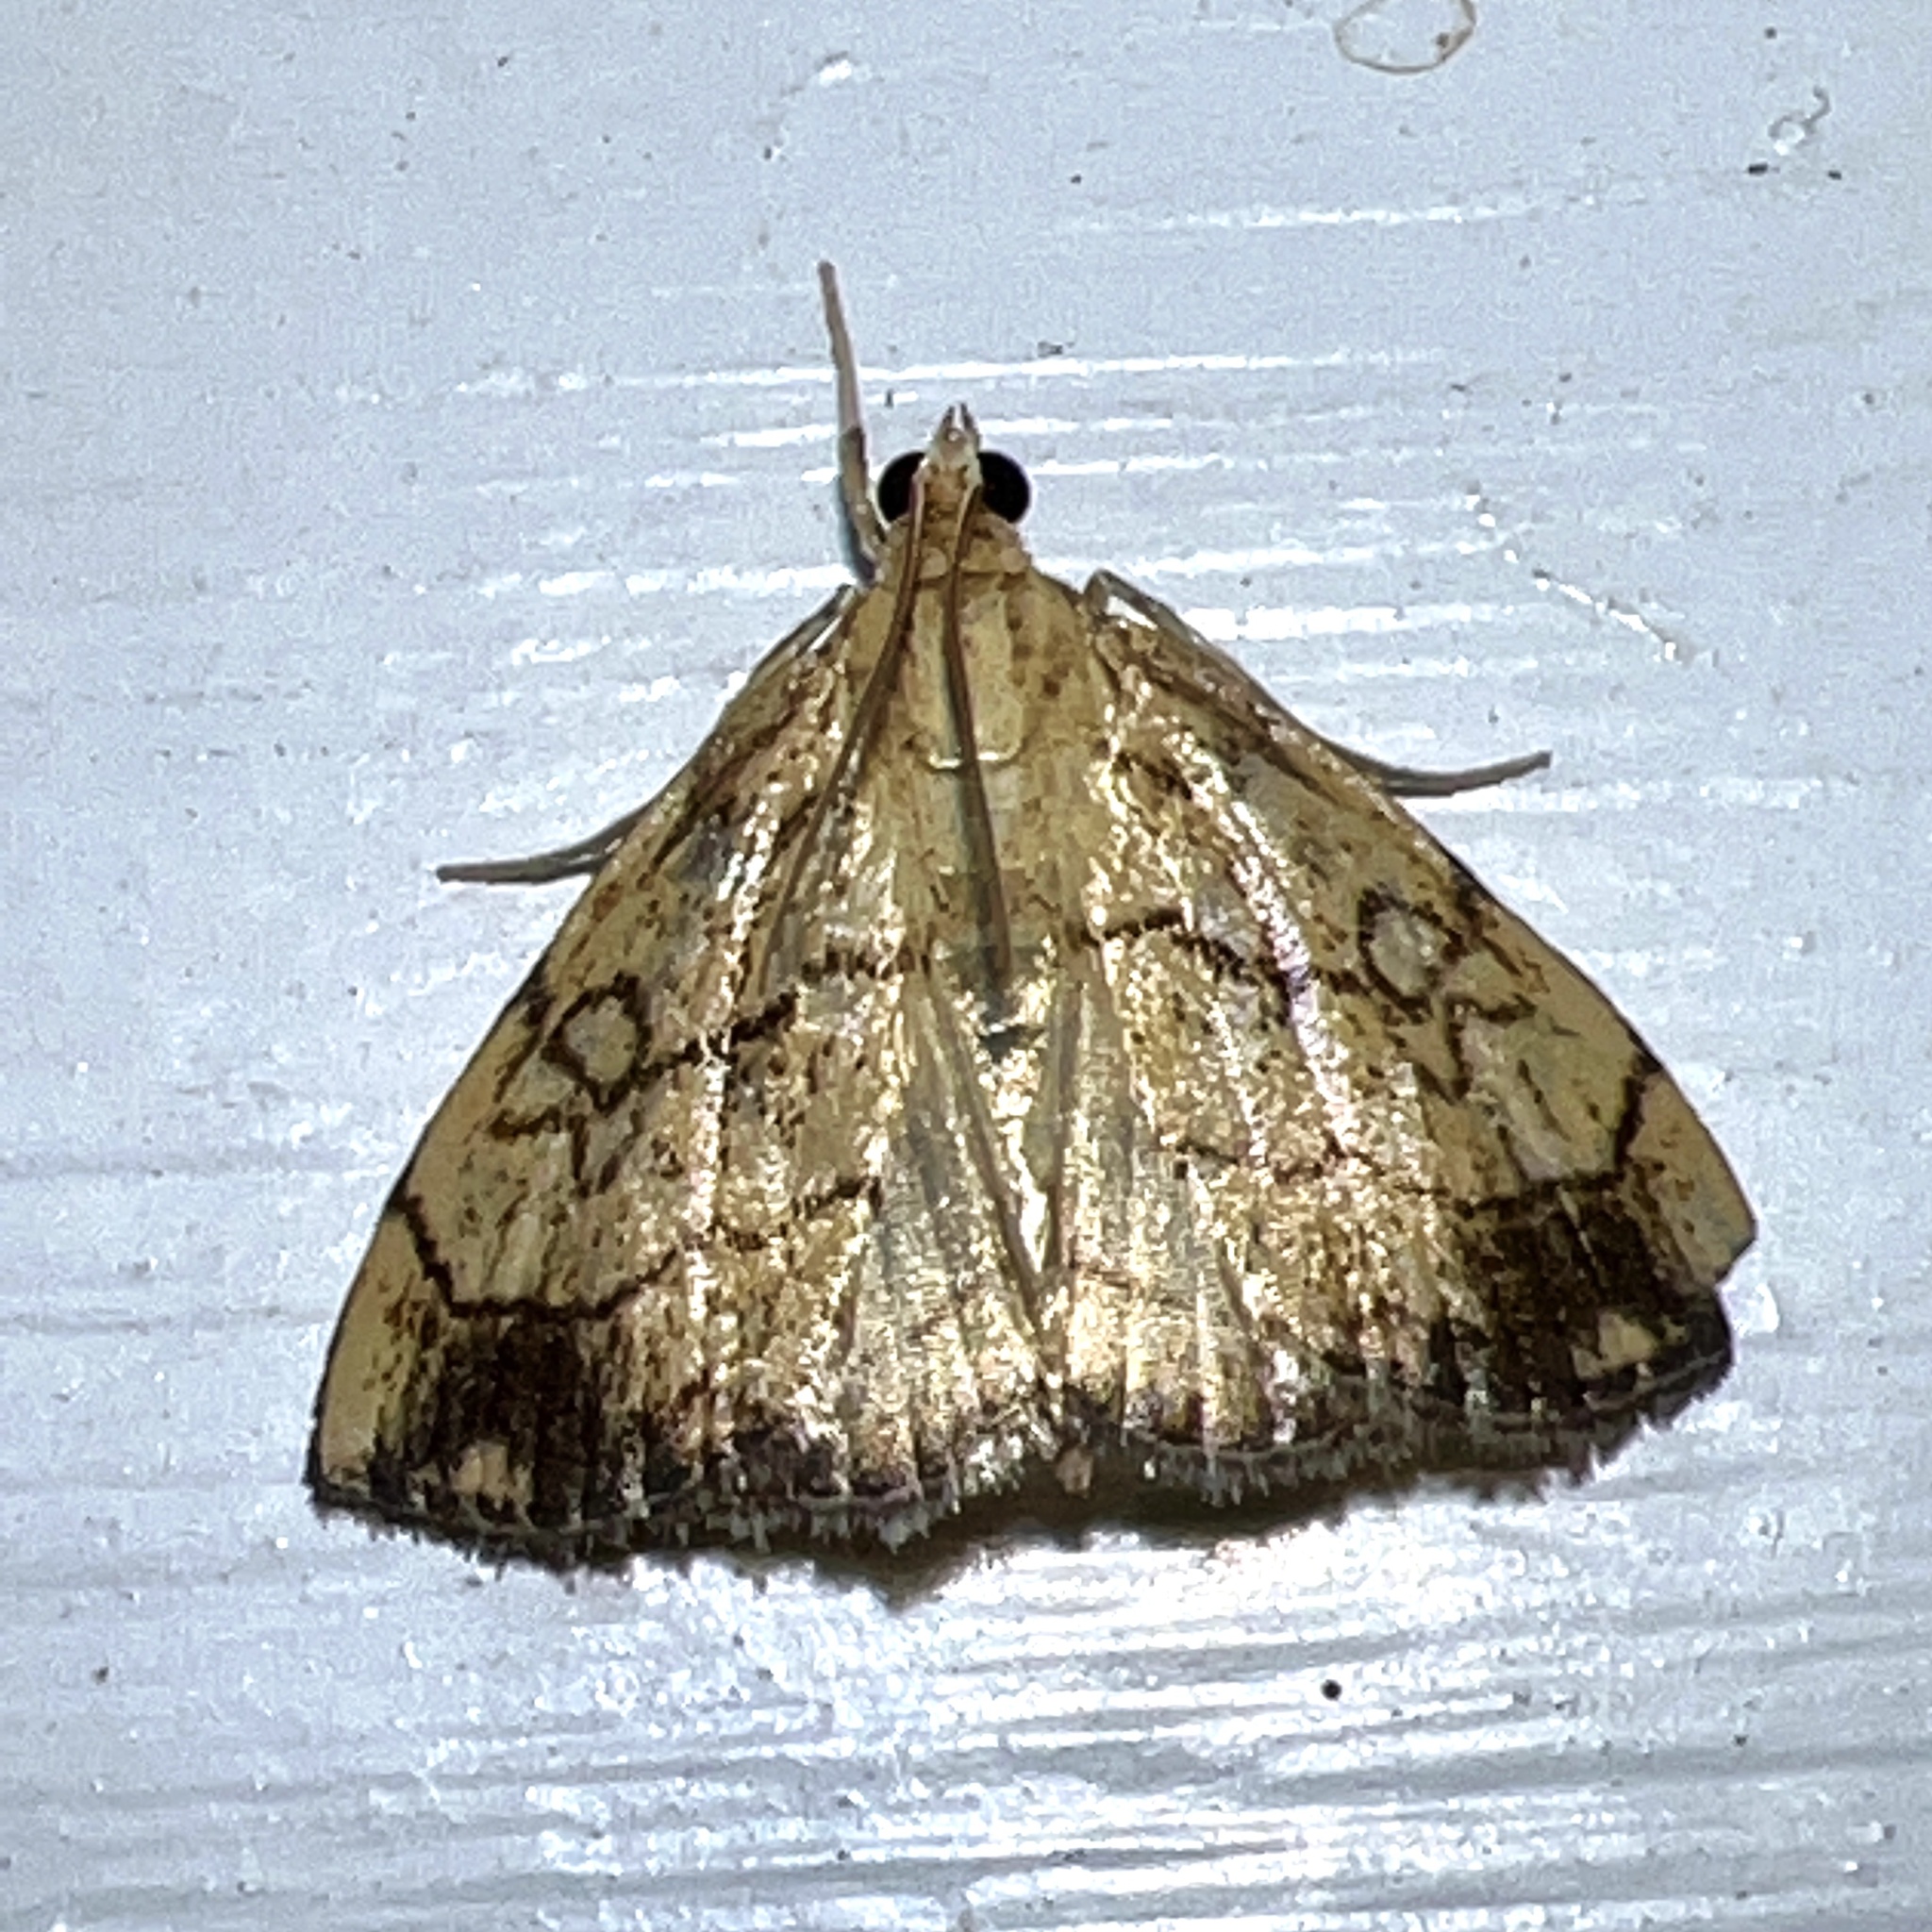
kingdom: Animalia
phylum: Arthropoda
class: Insecta
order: Lepidoptera
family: Crambidae
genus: Evergestis
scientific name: Evergestis pallidata
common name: Chequered pearl
